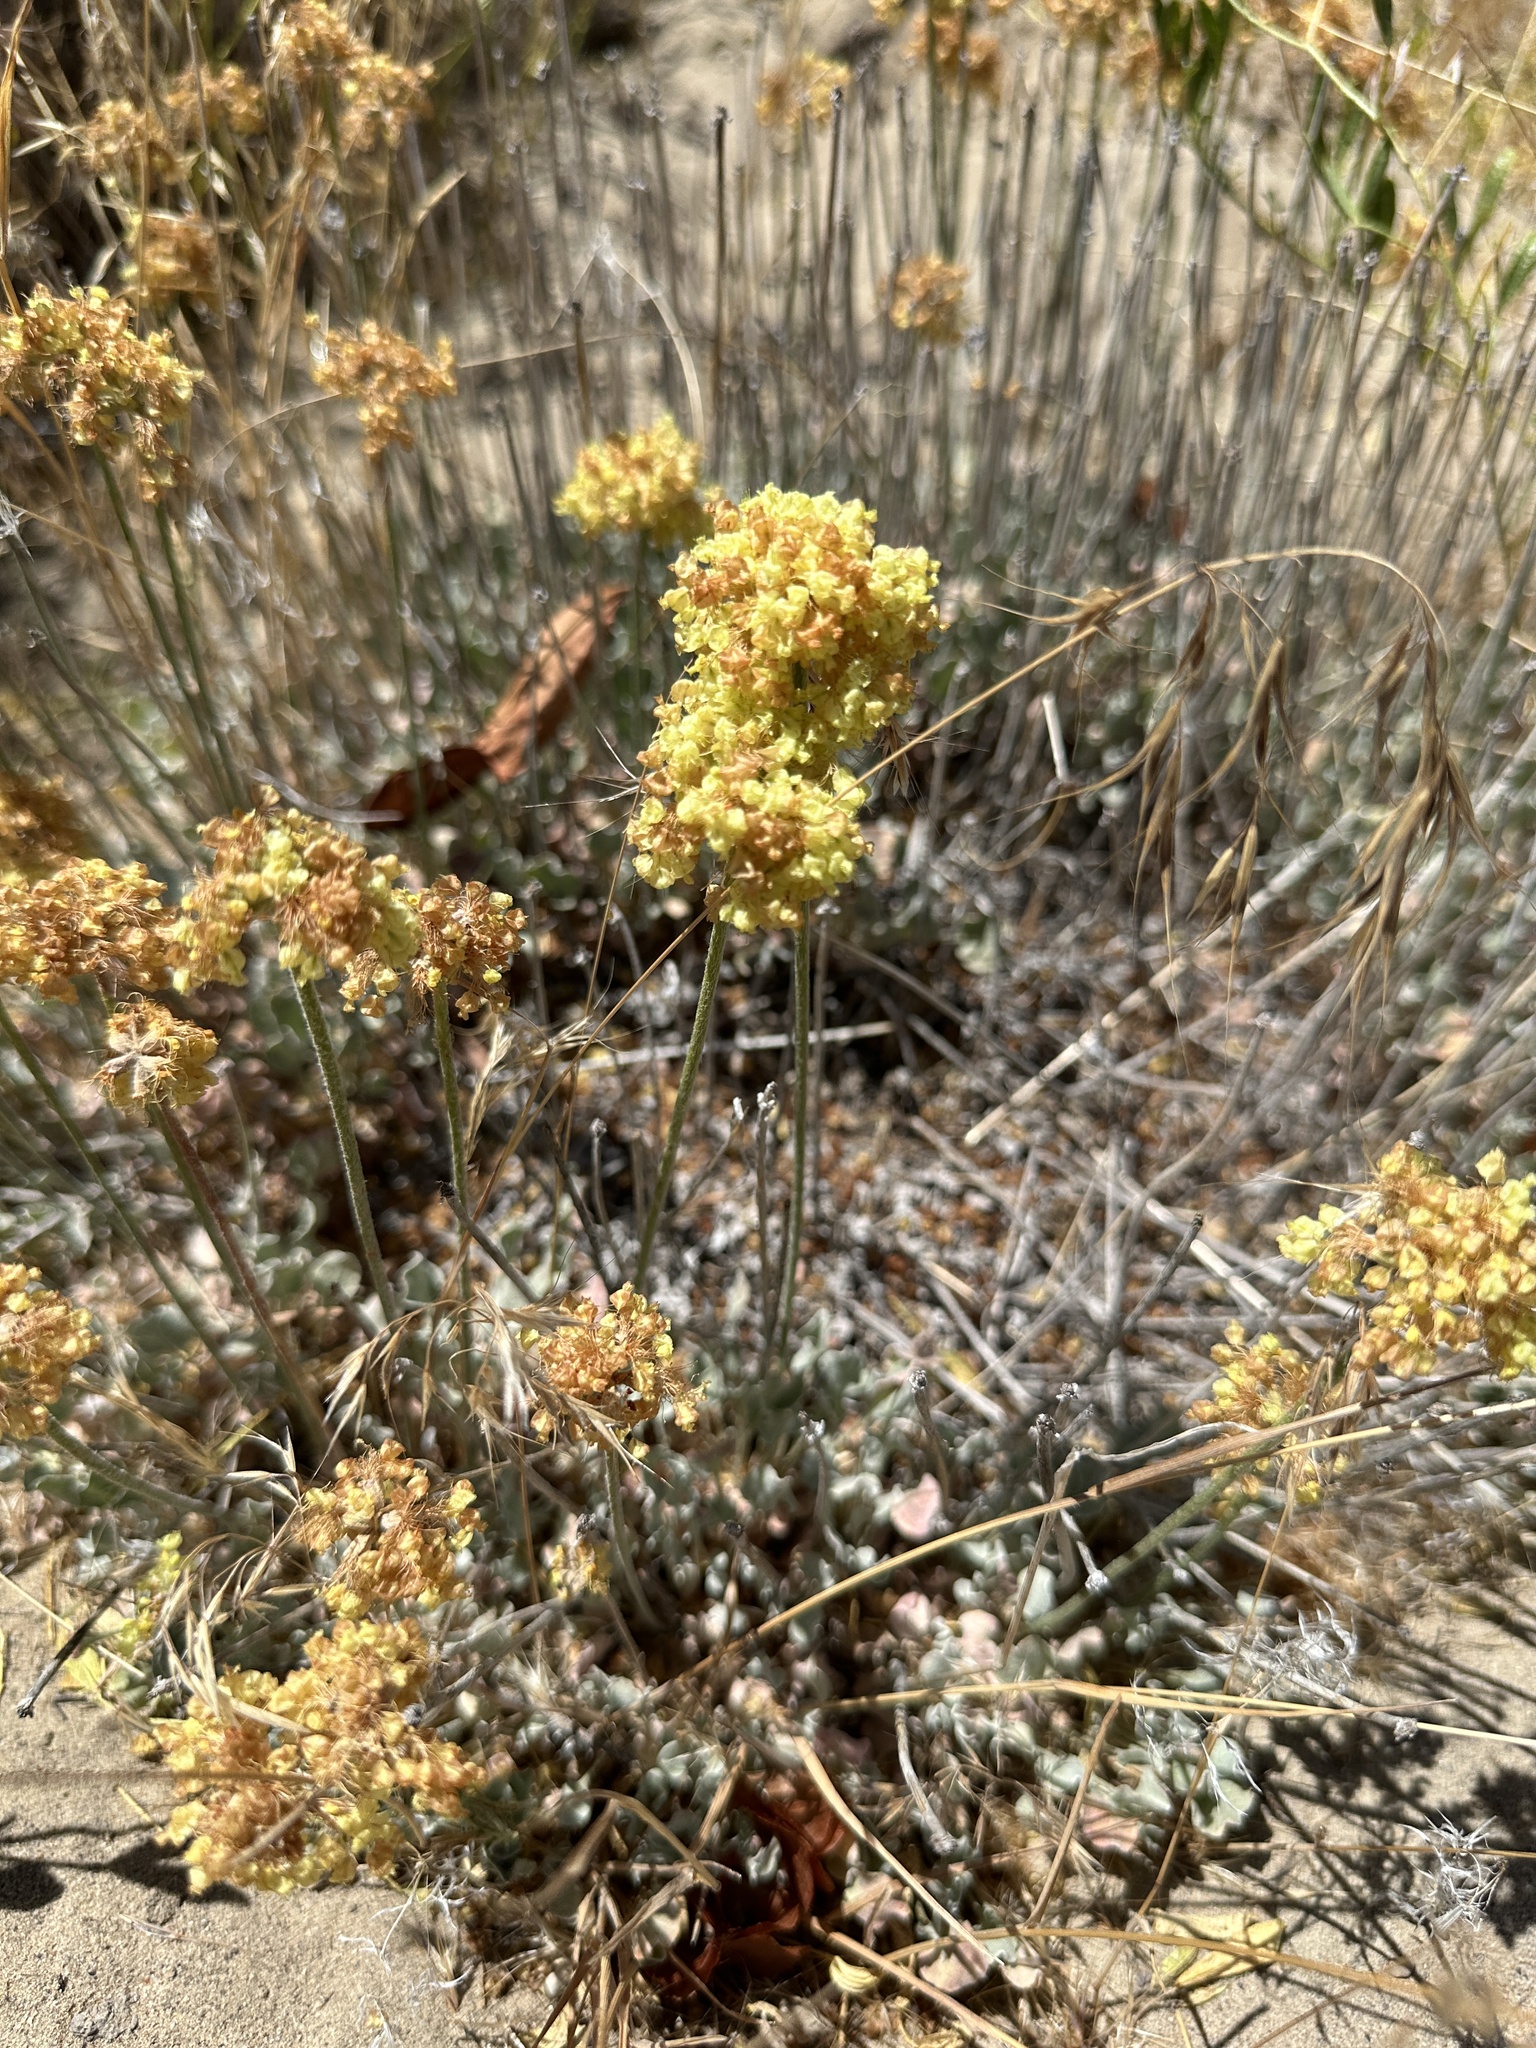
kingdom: Plantae
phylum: Tracheophyta
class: Magnoliopsida
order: Caryophyllales
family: Polygonaceae
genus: Eriogonum
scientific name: Eriogonum ovalifolium
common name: Cushion buckwheat
